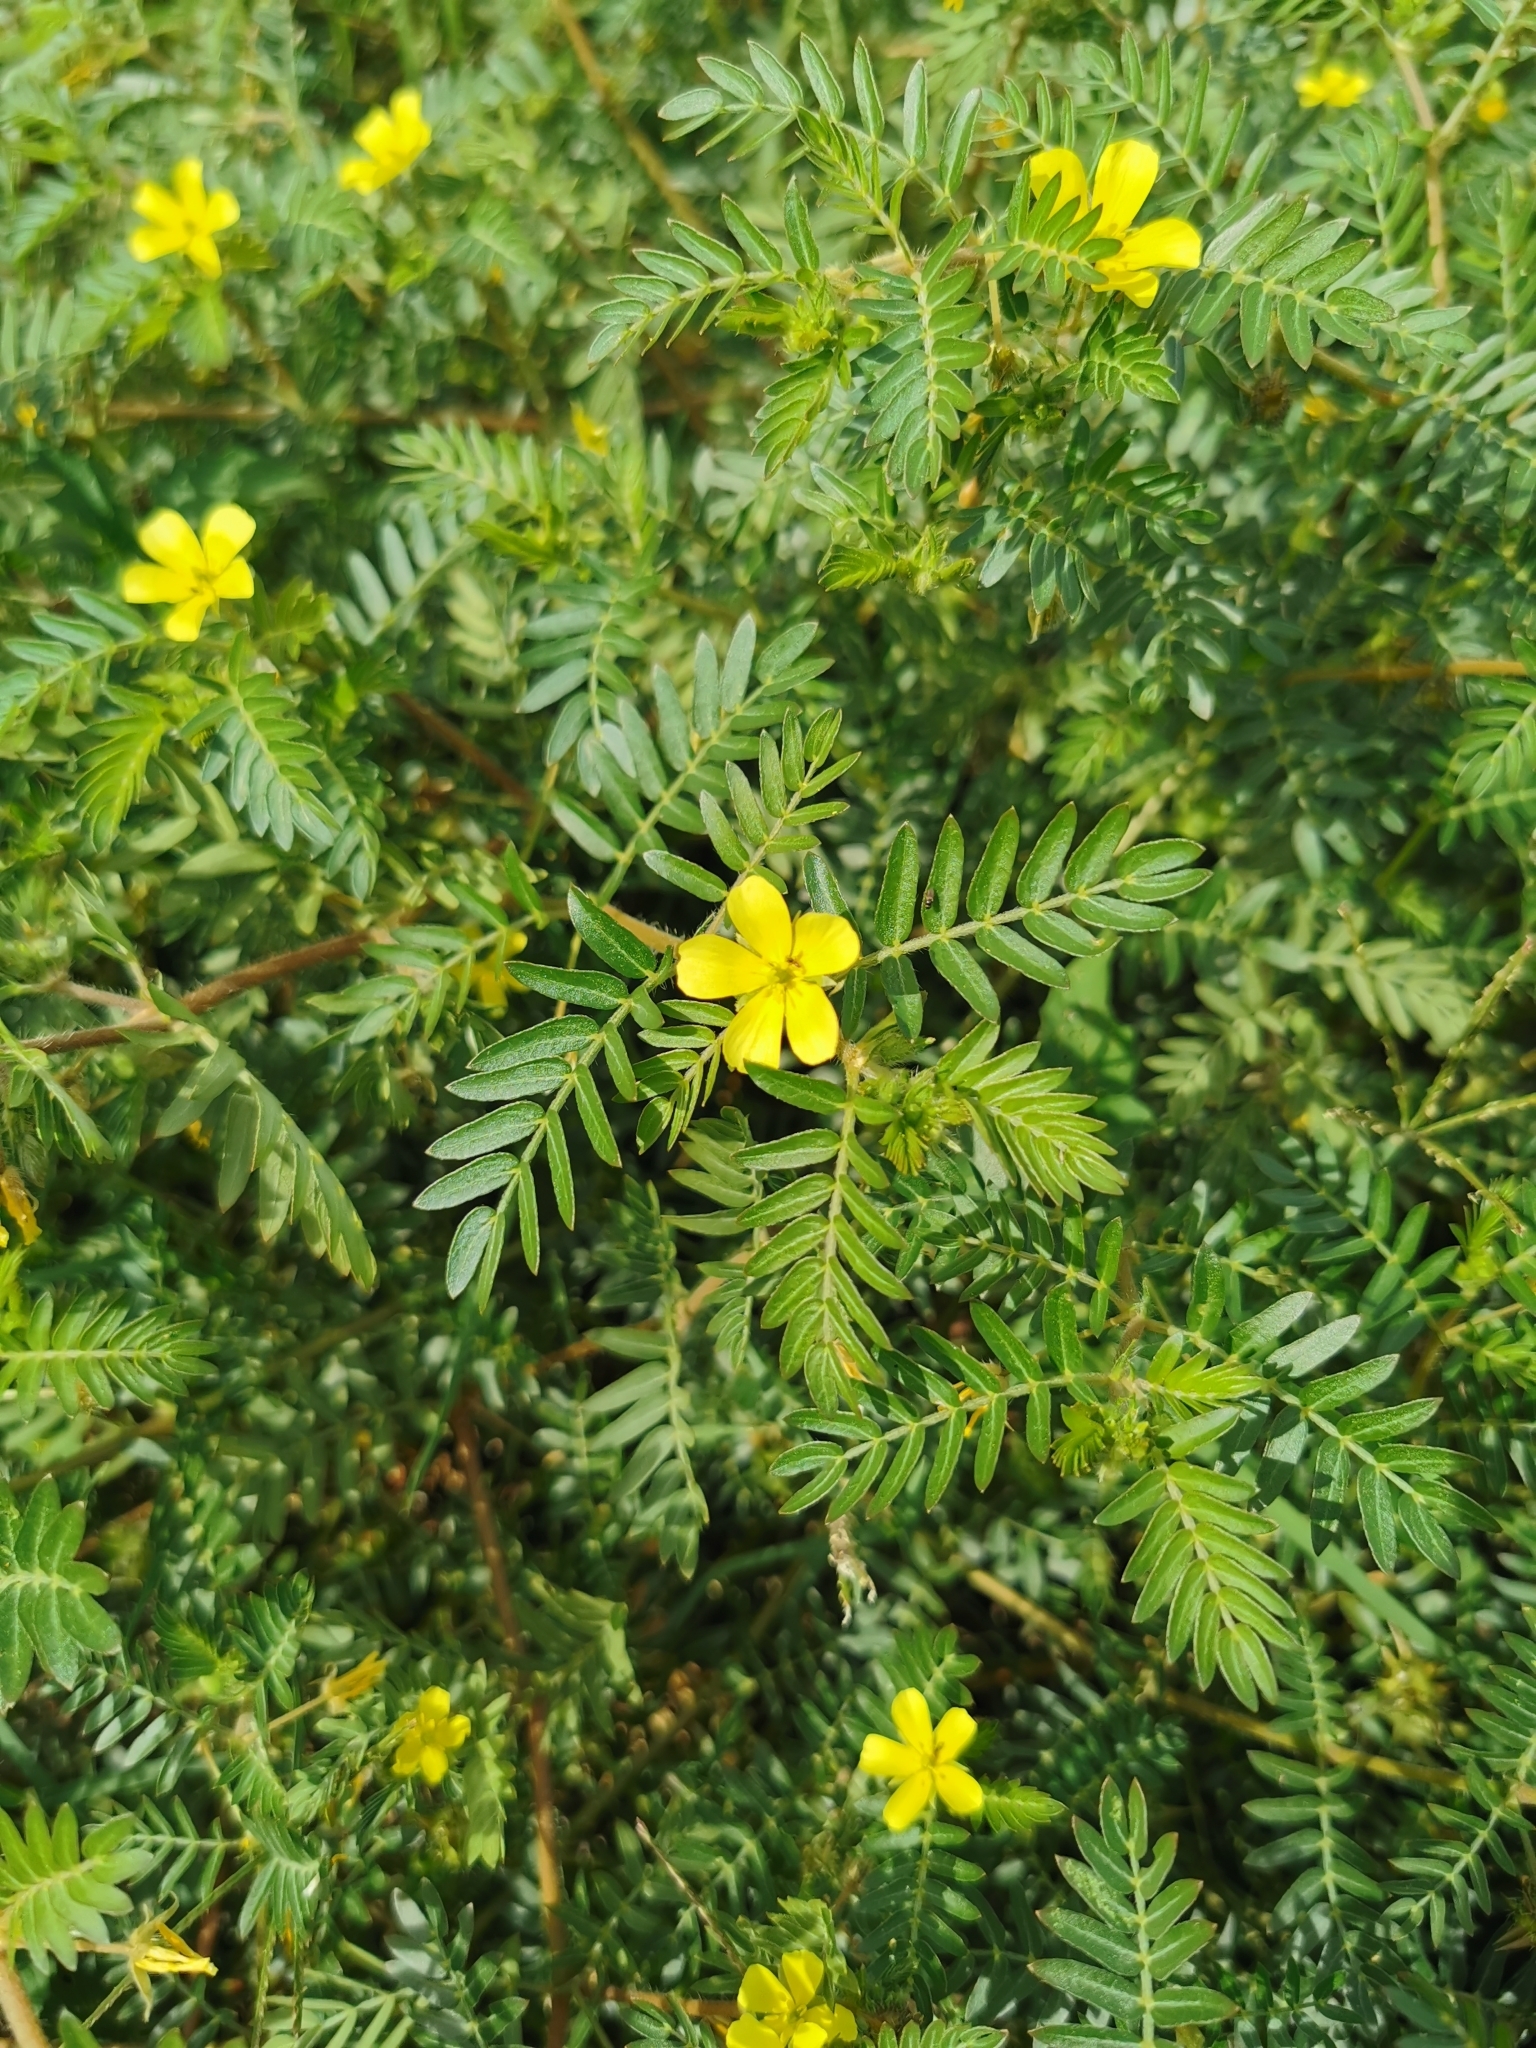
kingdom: Plantae
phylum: Tracheophyta
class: Magnoliopsida
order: Zygophyllales
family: Zygophyllaceae
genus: Tribulus
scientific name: Tribulus terrestris
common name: Puncturevine
